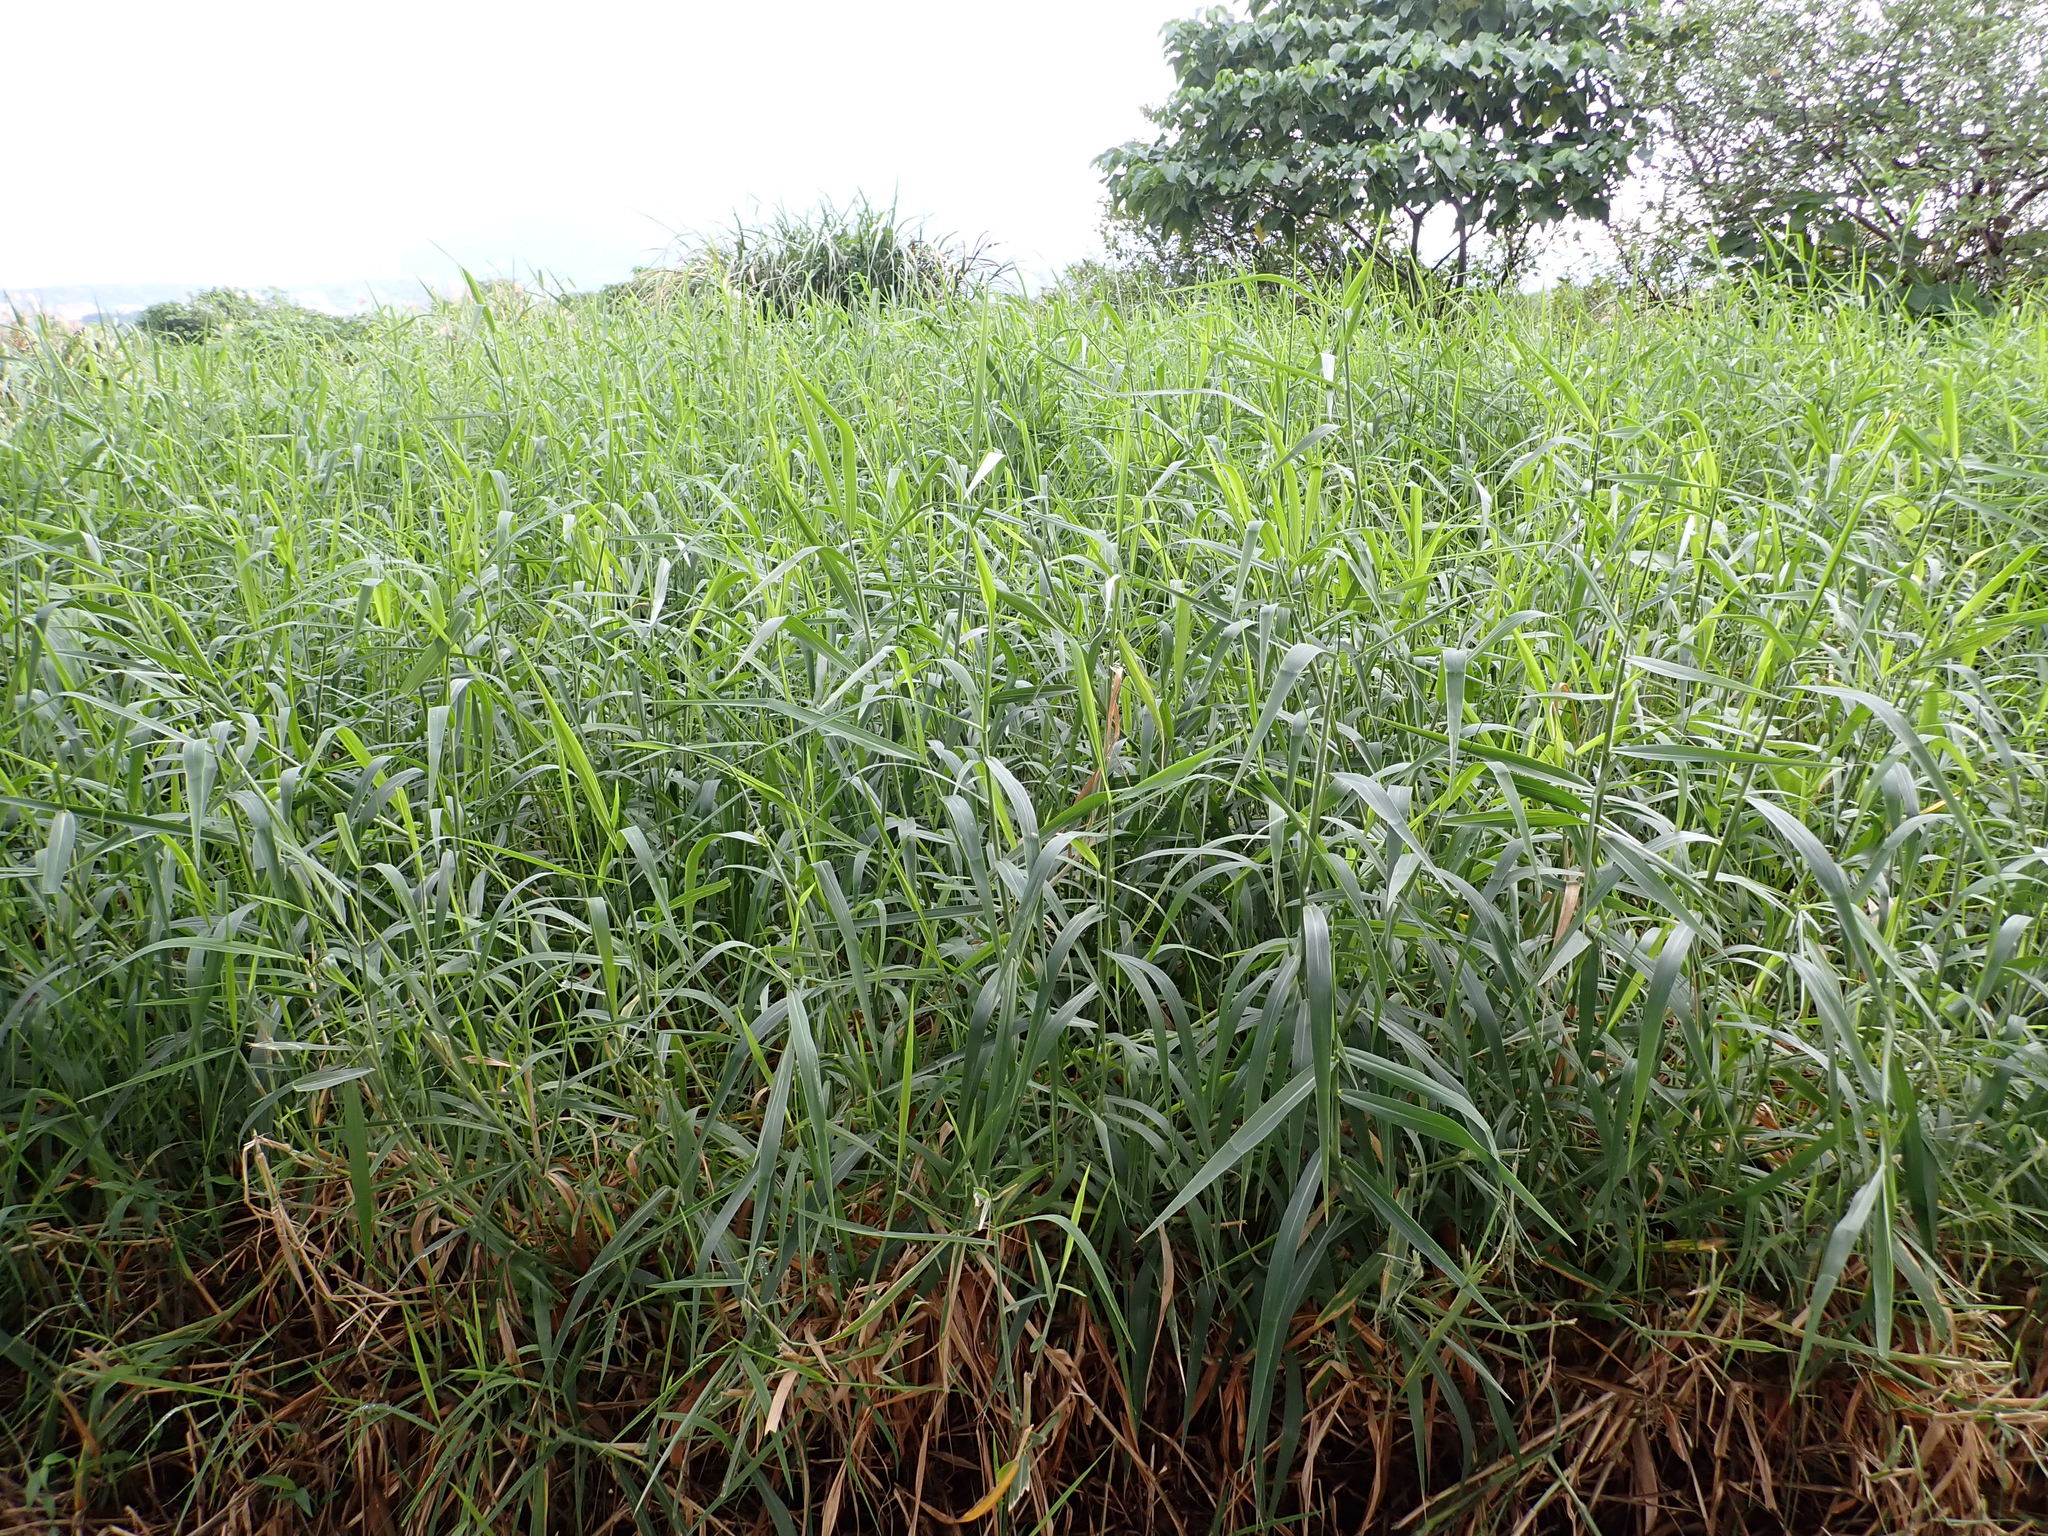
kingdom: Plantae
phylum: Tracheophyta
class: Liliopsida
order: Poales
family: Poaceae
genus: Urochloa
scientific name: Urochloa mutica
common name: Para grass
